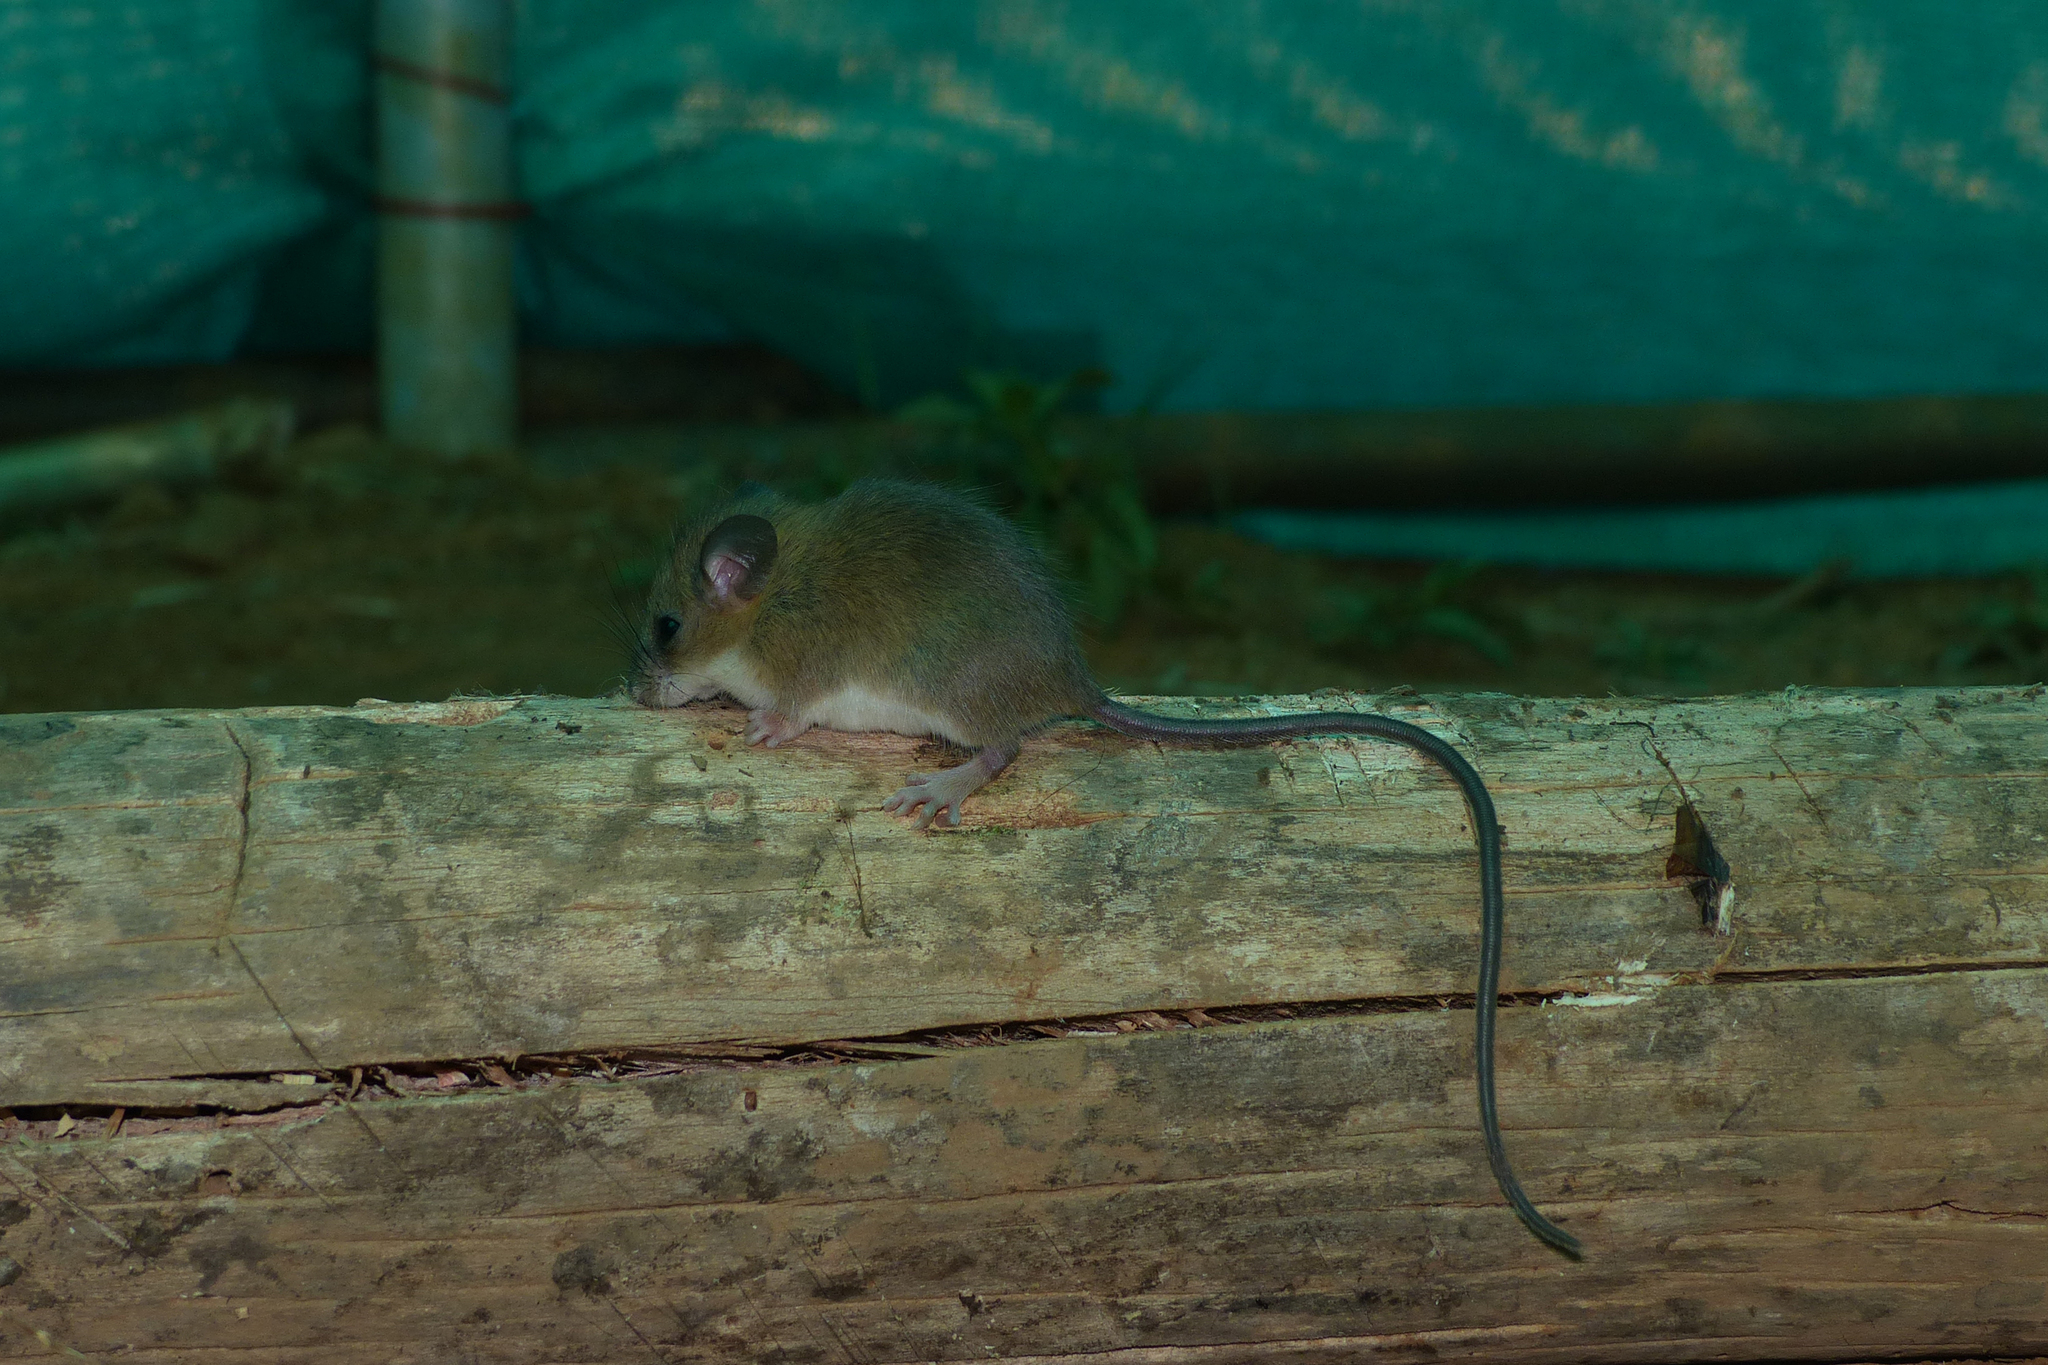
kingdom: Animalia
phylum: Chordata
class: Mammalia
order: Rodentia
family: Muridae
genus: Vandeleuria
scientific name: Vandeleuria nilagirica
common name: Nilgiri vandeleuria
